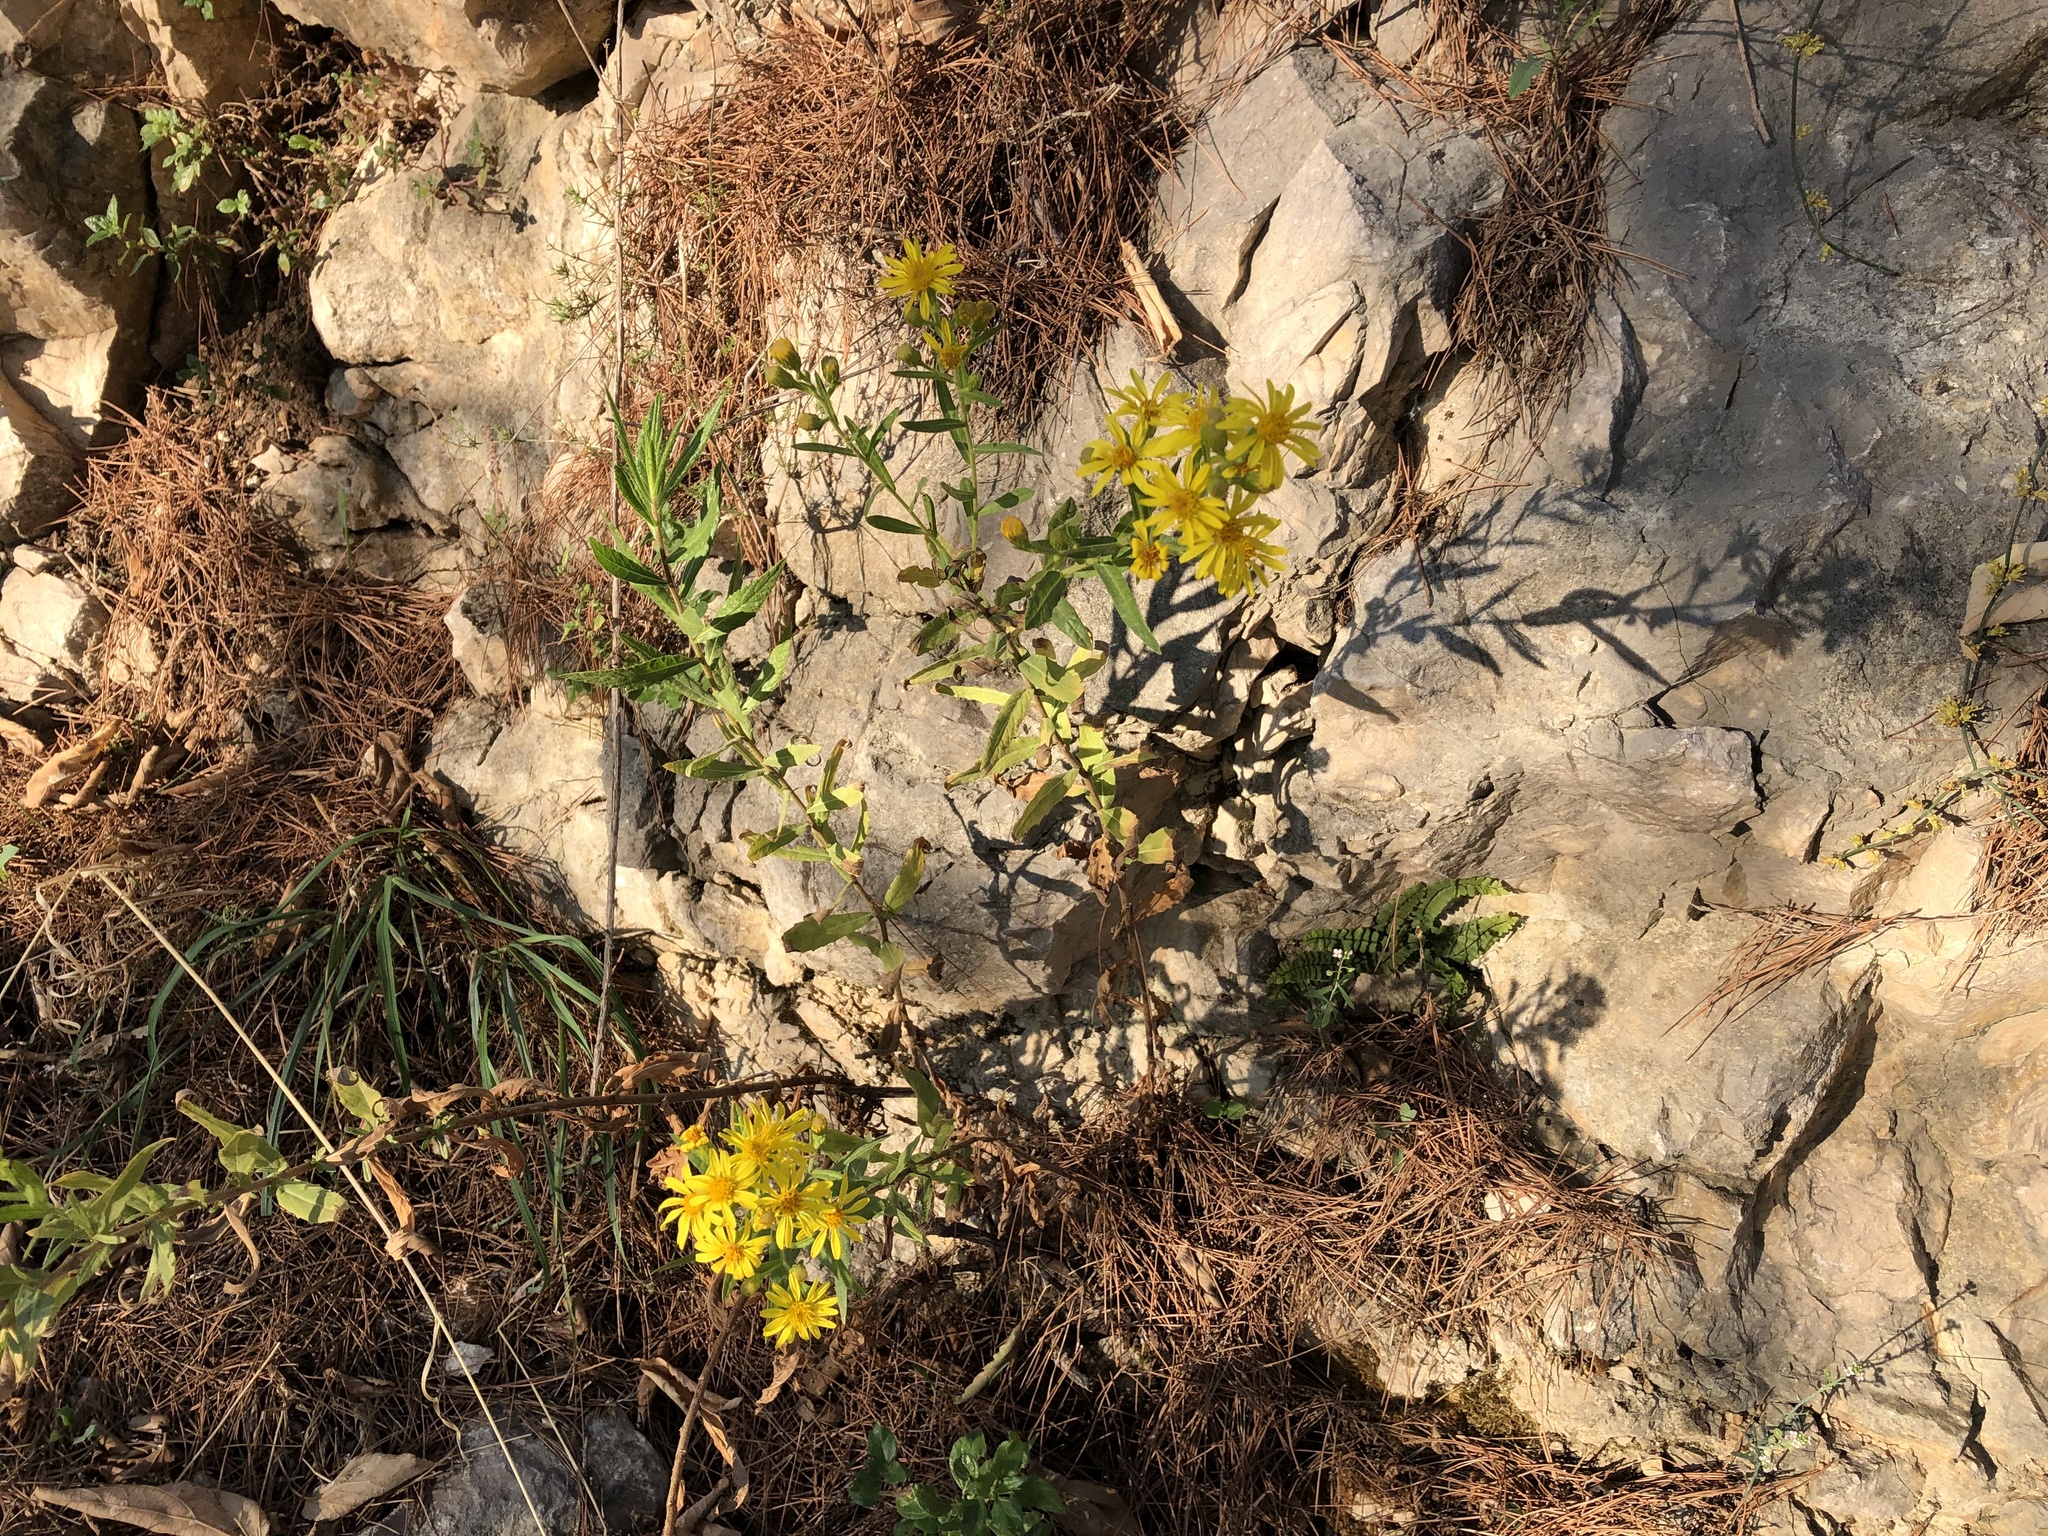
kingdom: Plantae
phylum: Tracheophyta
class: Magnoliopsida
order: Asterales
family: Asteraceae
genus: Dittrichia
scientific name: Dittrichia viscosa
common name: Woody fleabane
